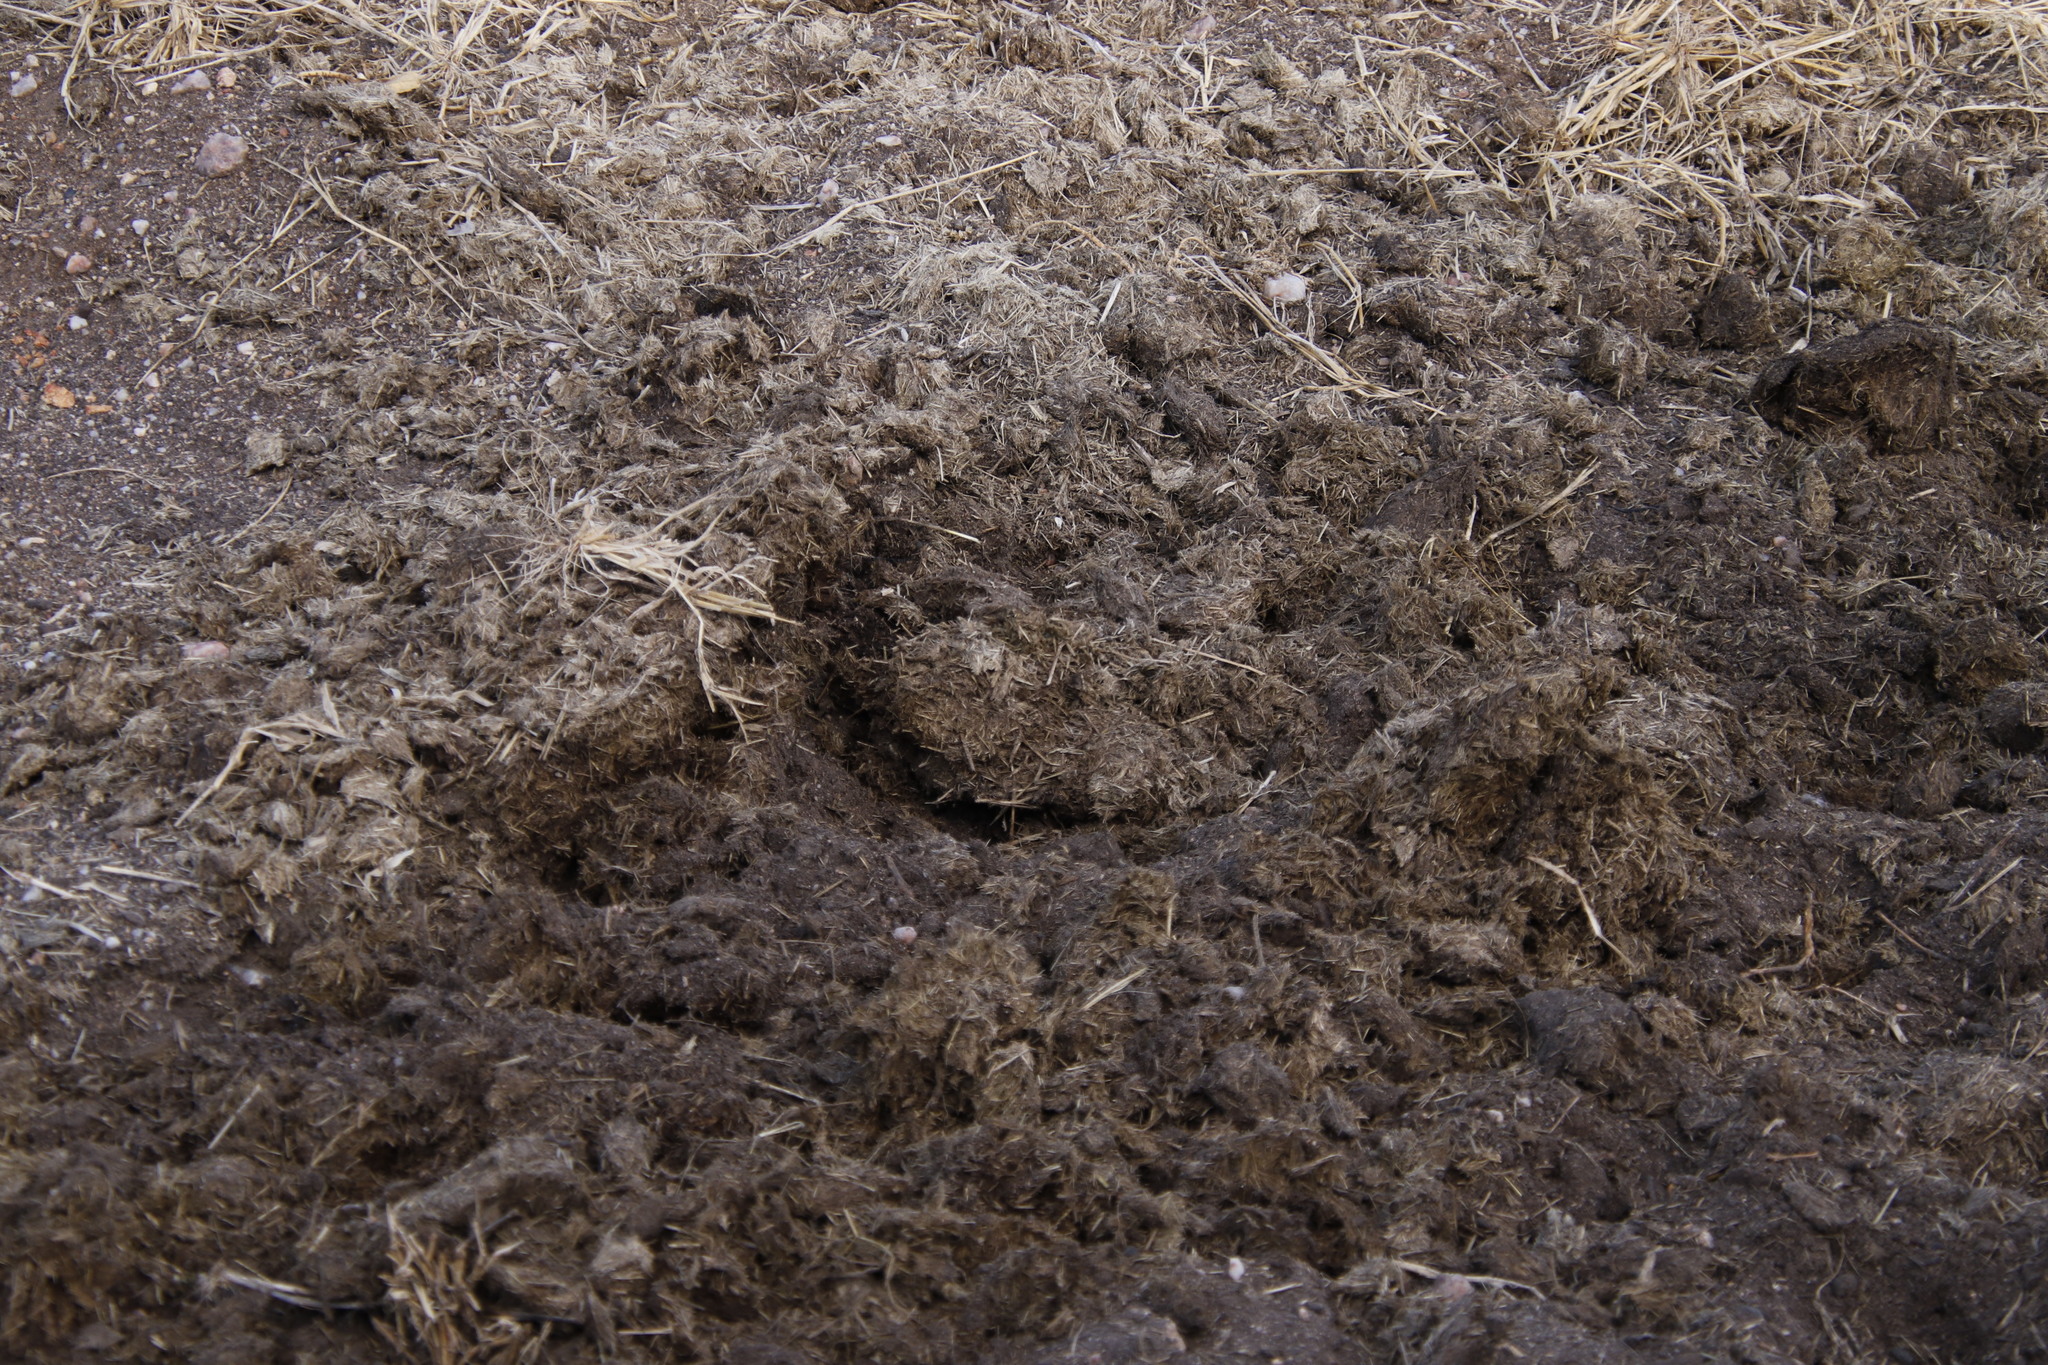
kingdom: Animalia
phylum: Chordata
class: Mammalia
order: Perissodactyla
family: Rhinocerotidae
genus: Ceratotherium
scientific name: Ceratotherium simum
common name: White rhinoceros
